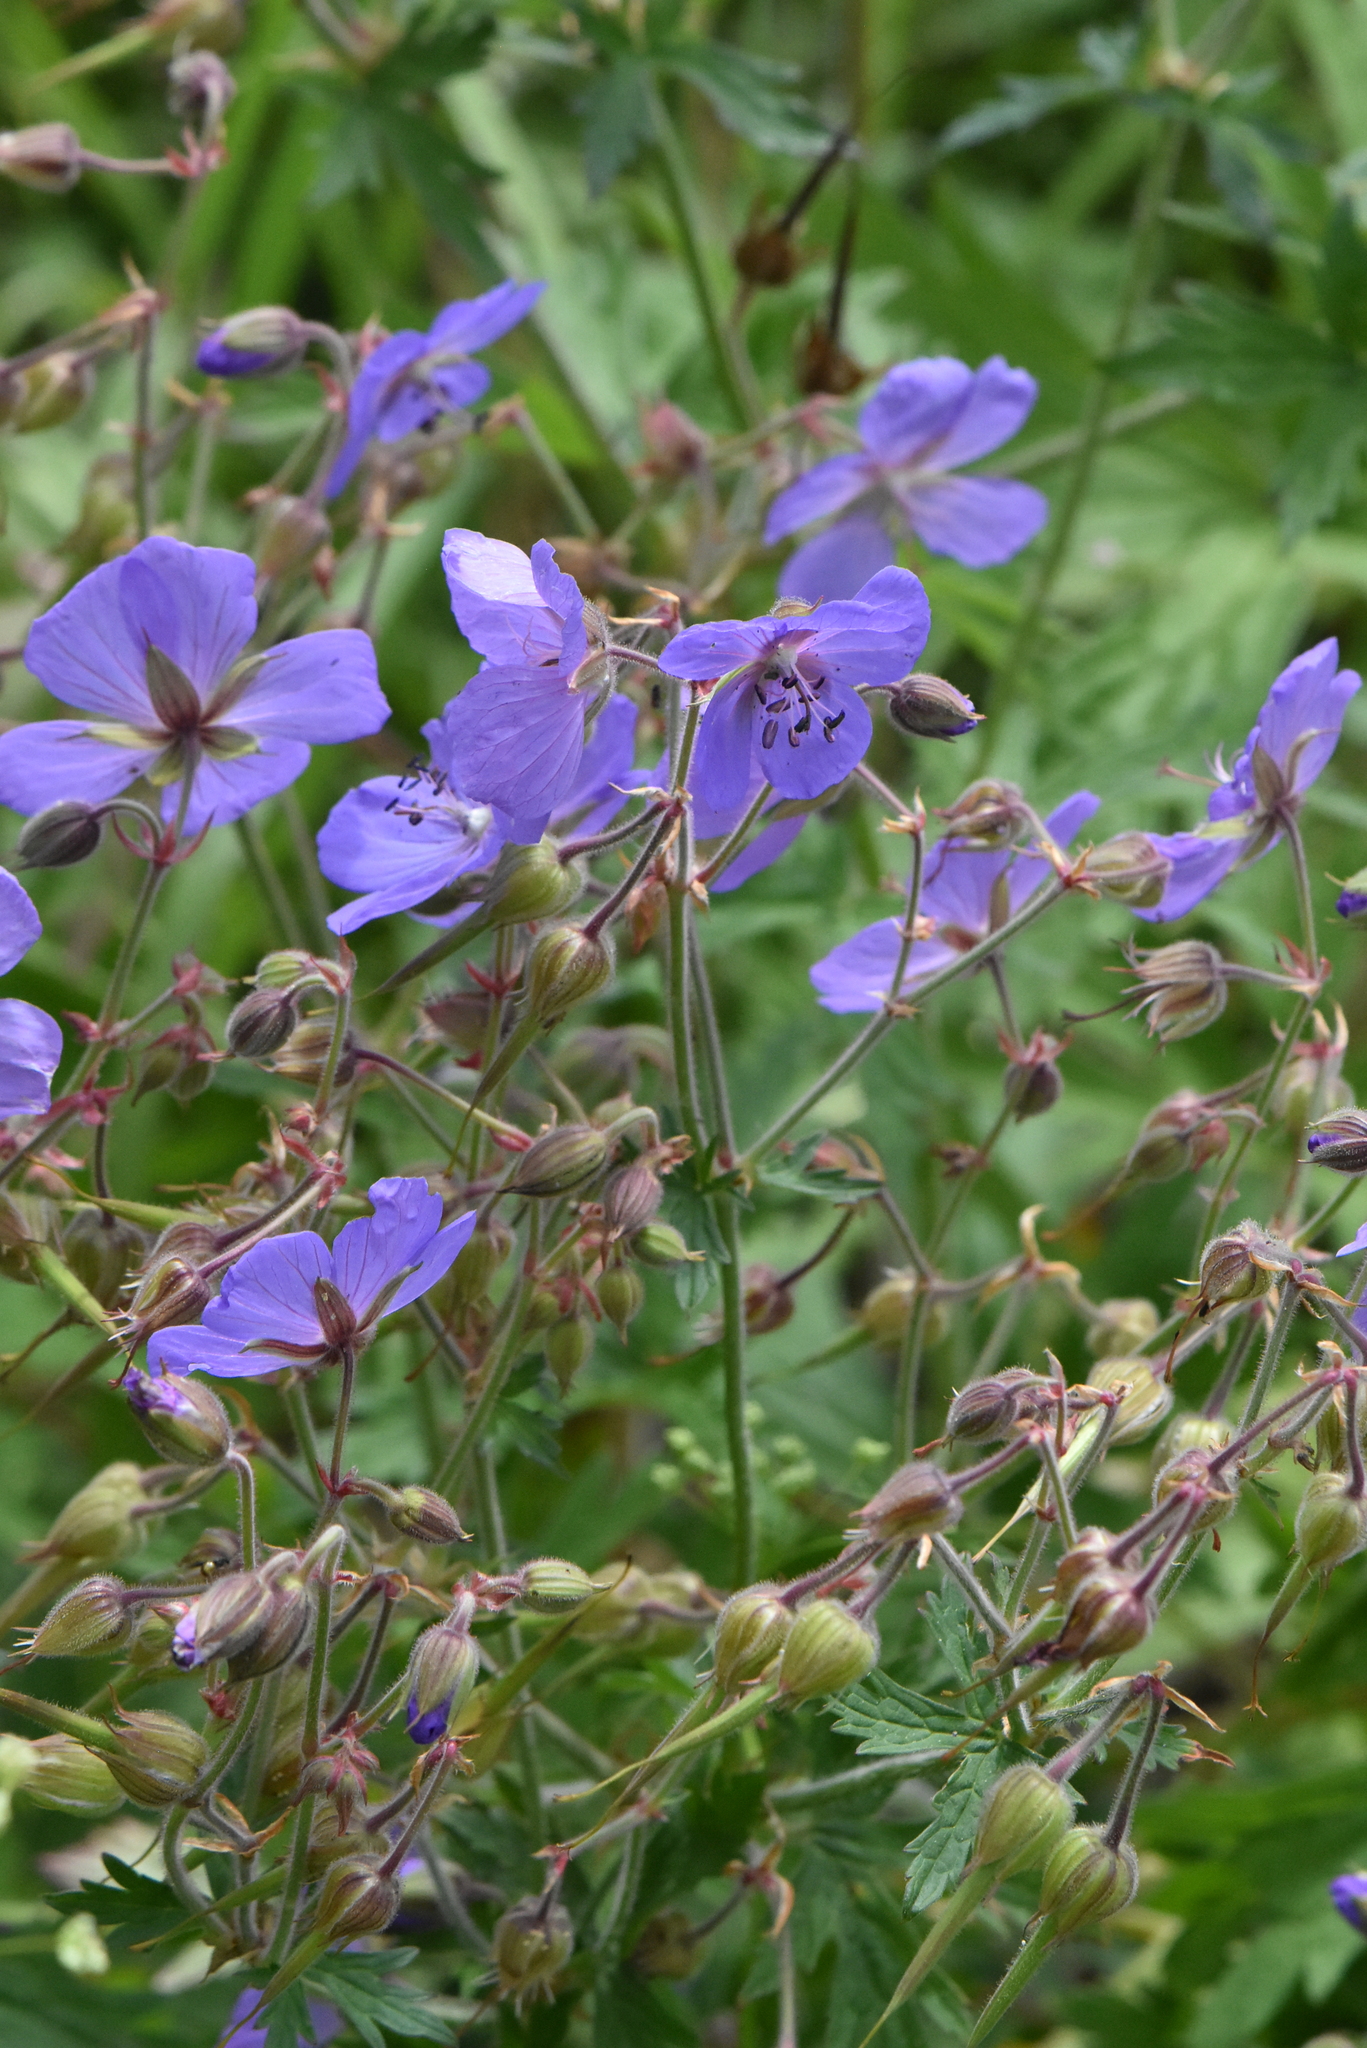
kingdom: Plantae
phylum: Tracheophyta
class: Magnoliopsida
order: Geraniales
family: Geraniaceae
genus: Geranium
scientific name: Geranium pratense
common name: Meadow crane's-bill
